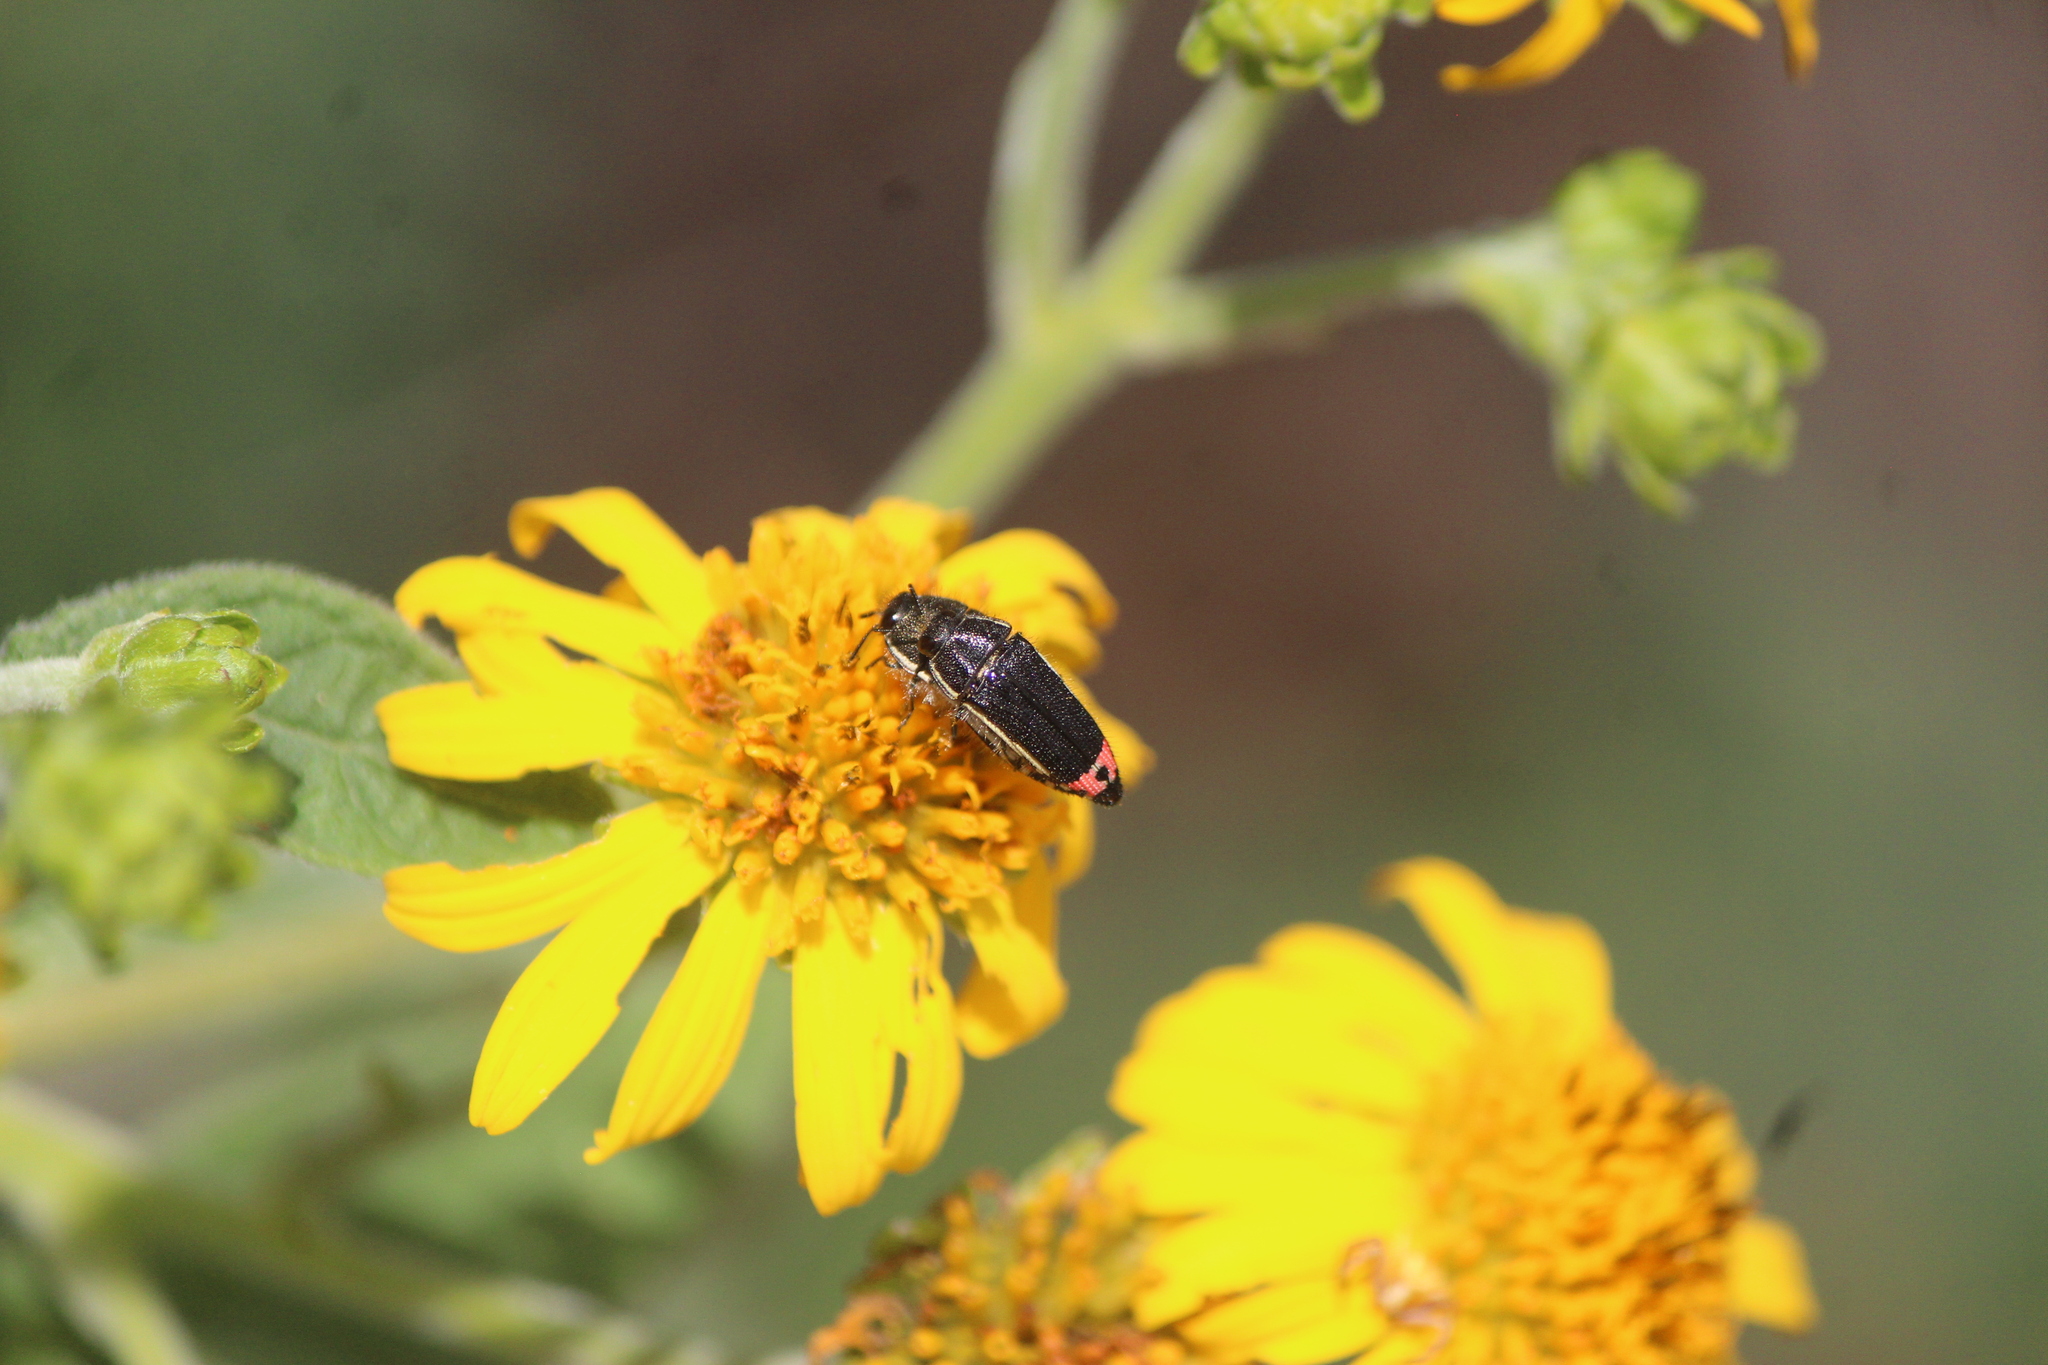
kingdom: Animalia
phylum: Arthropoda
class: Insecta
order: Coleoptera
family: Buprestidae
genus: Acmaeodera
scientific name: Acmaeodera flavomarginata
